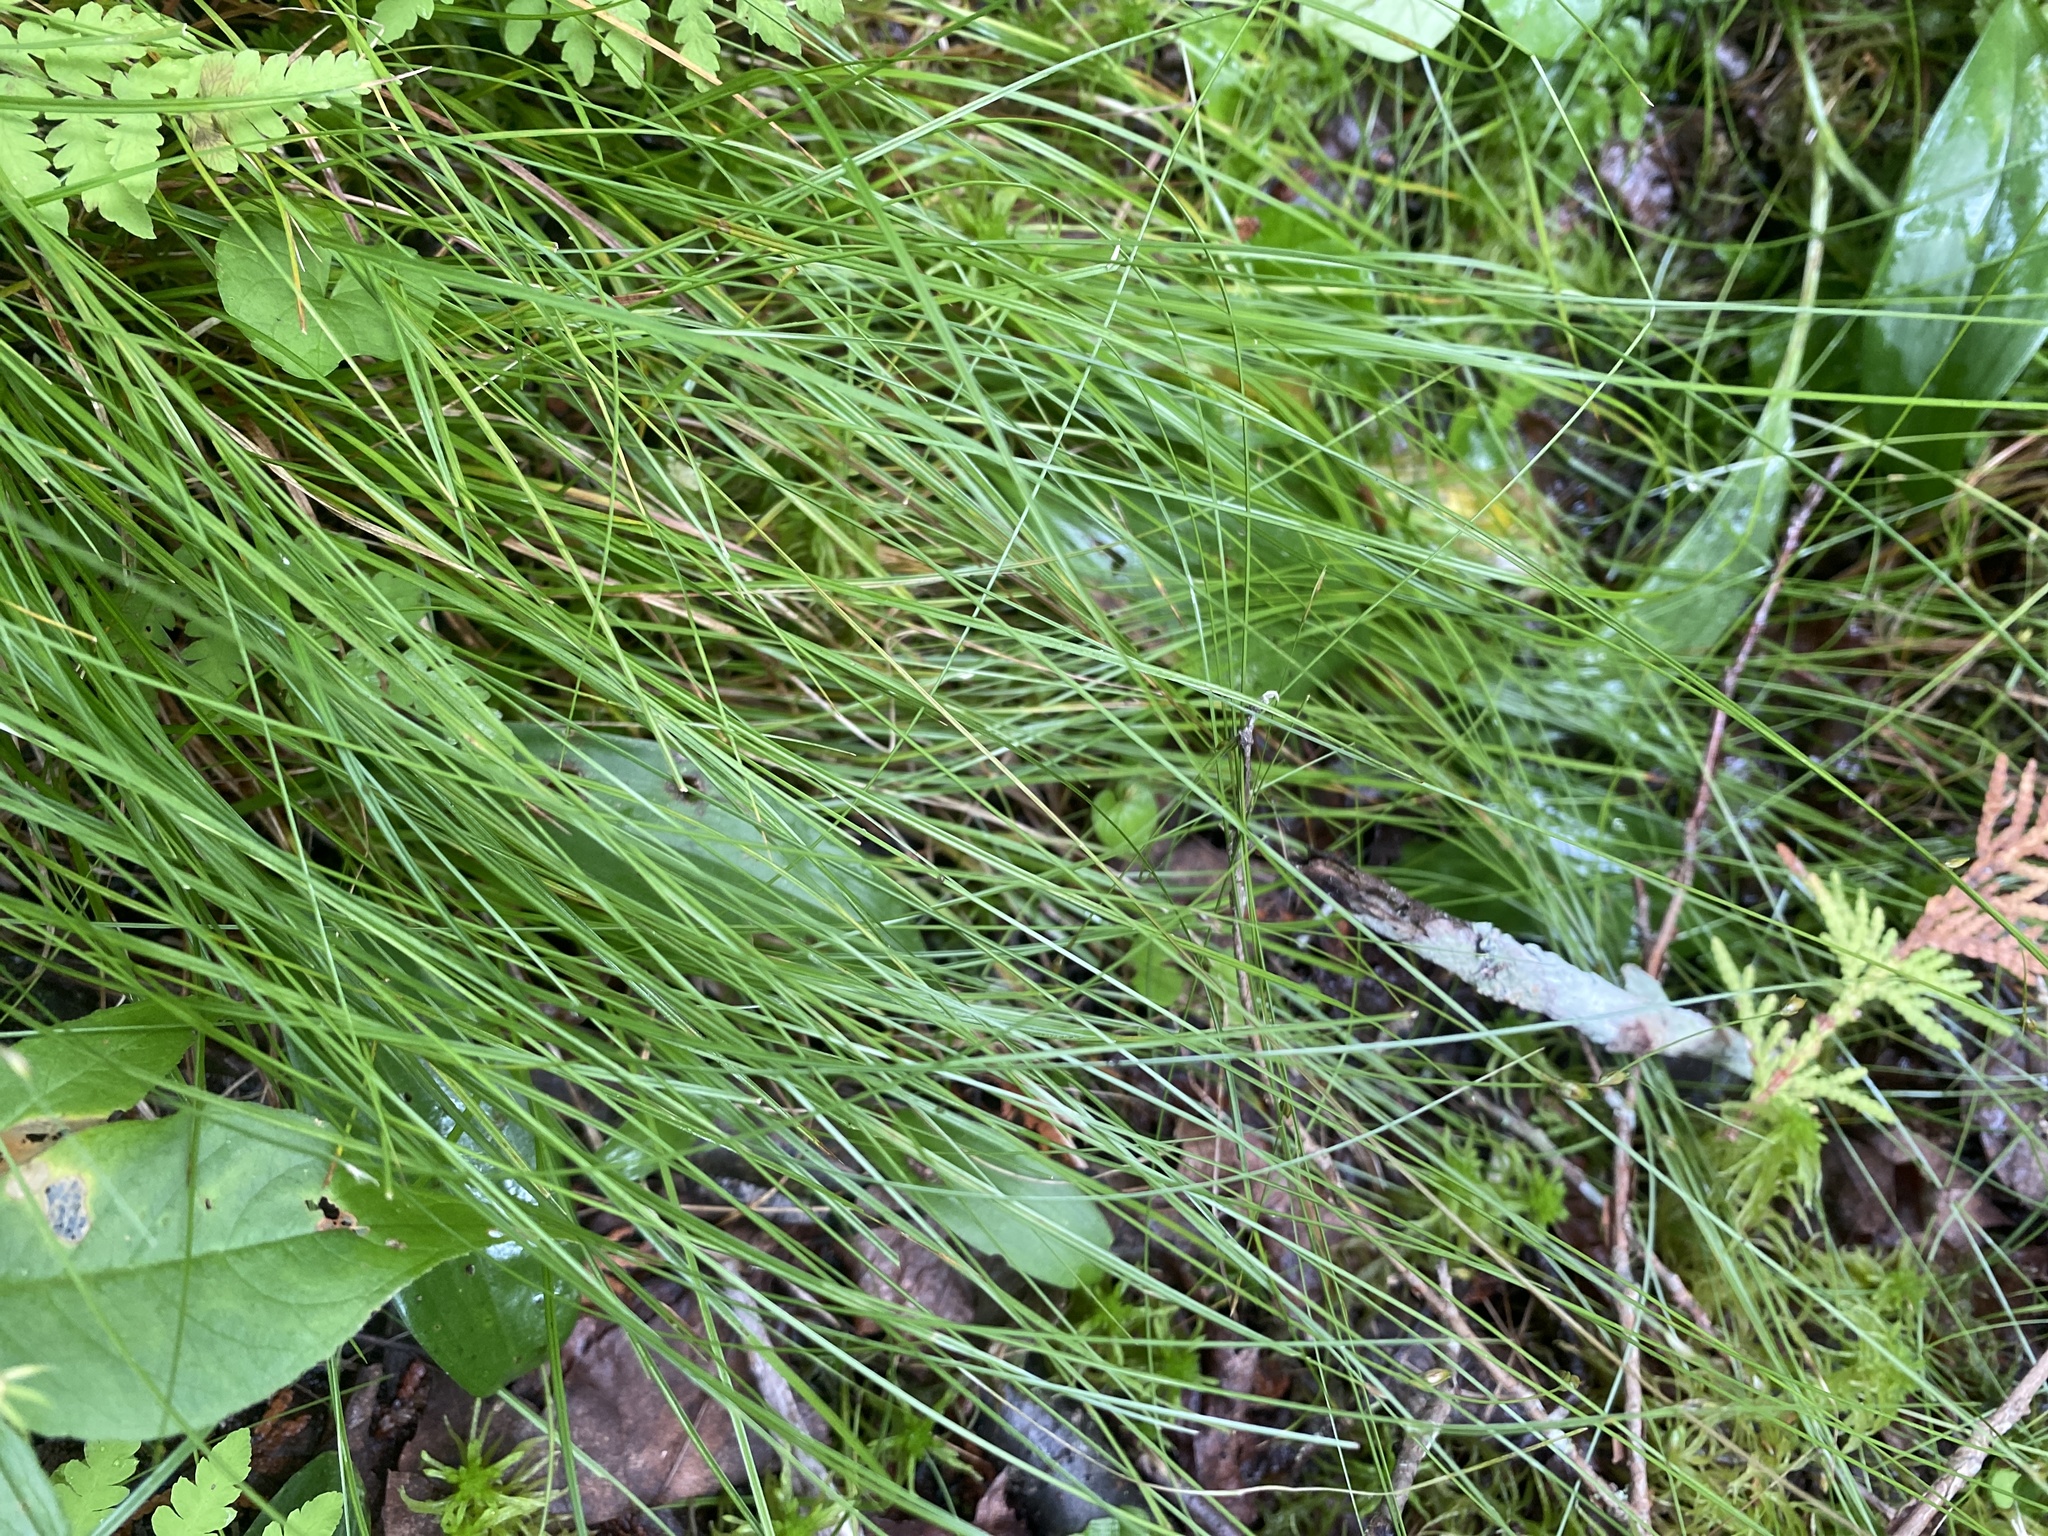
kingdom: Plantae
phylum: Tracheophyta
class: Liliopsida
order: Poales
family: Cyperaceae
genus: Carex
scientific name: Carex trisperma
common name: Three-seeded sedge
